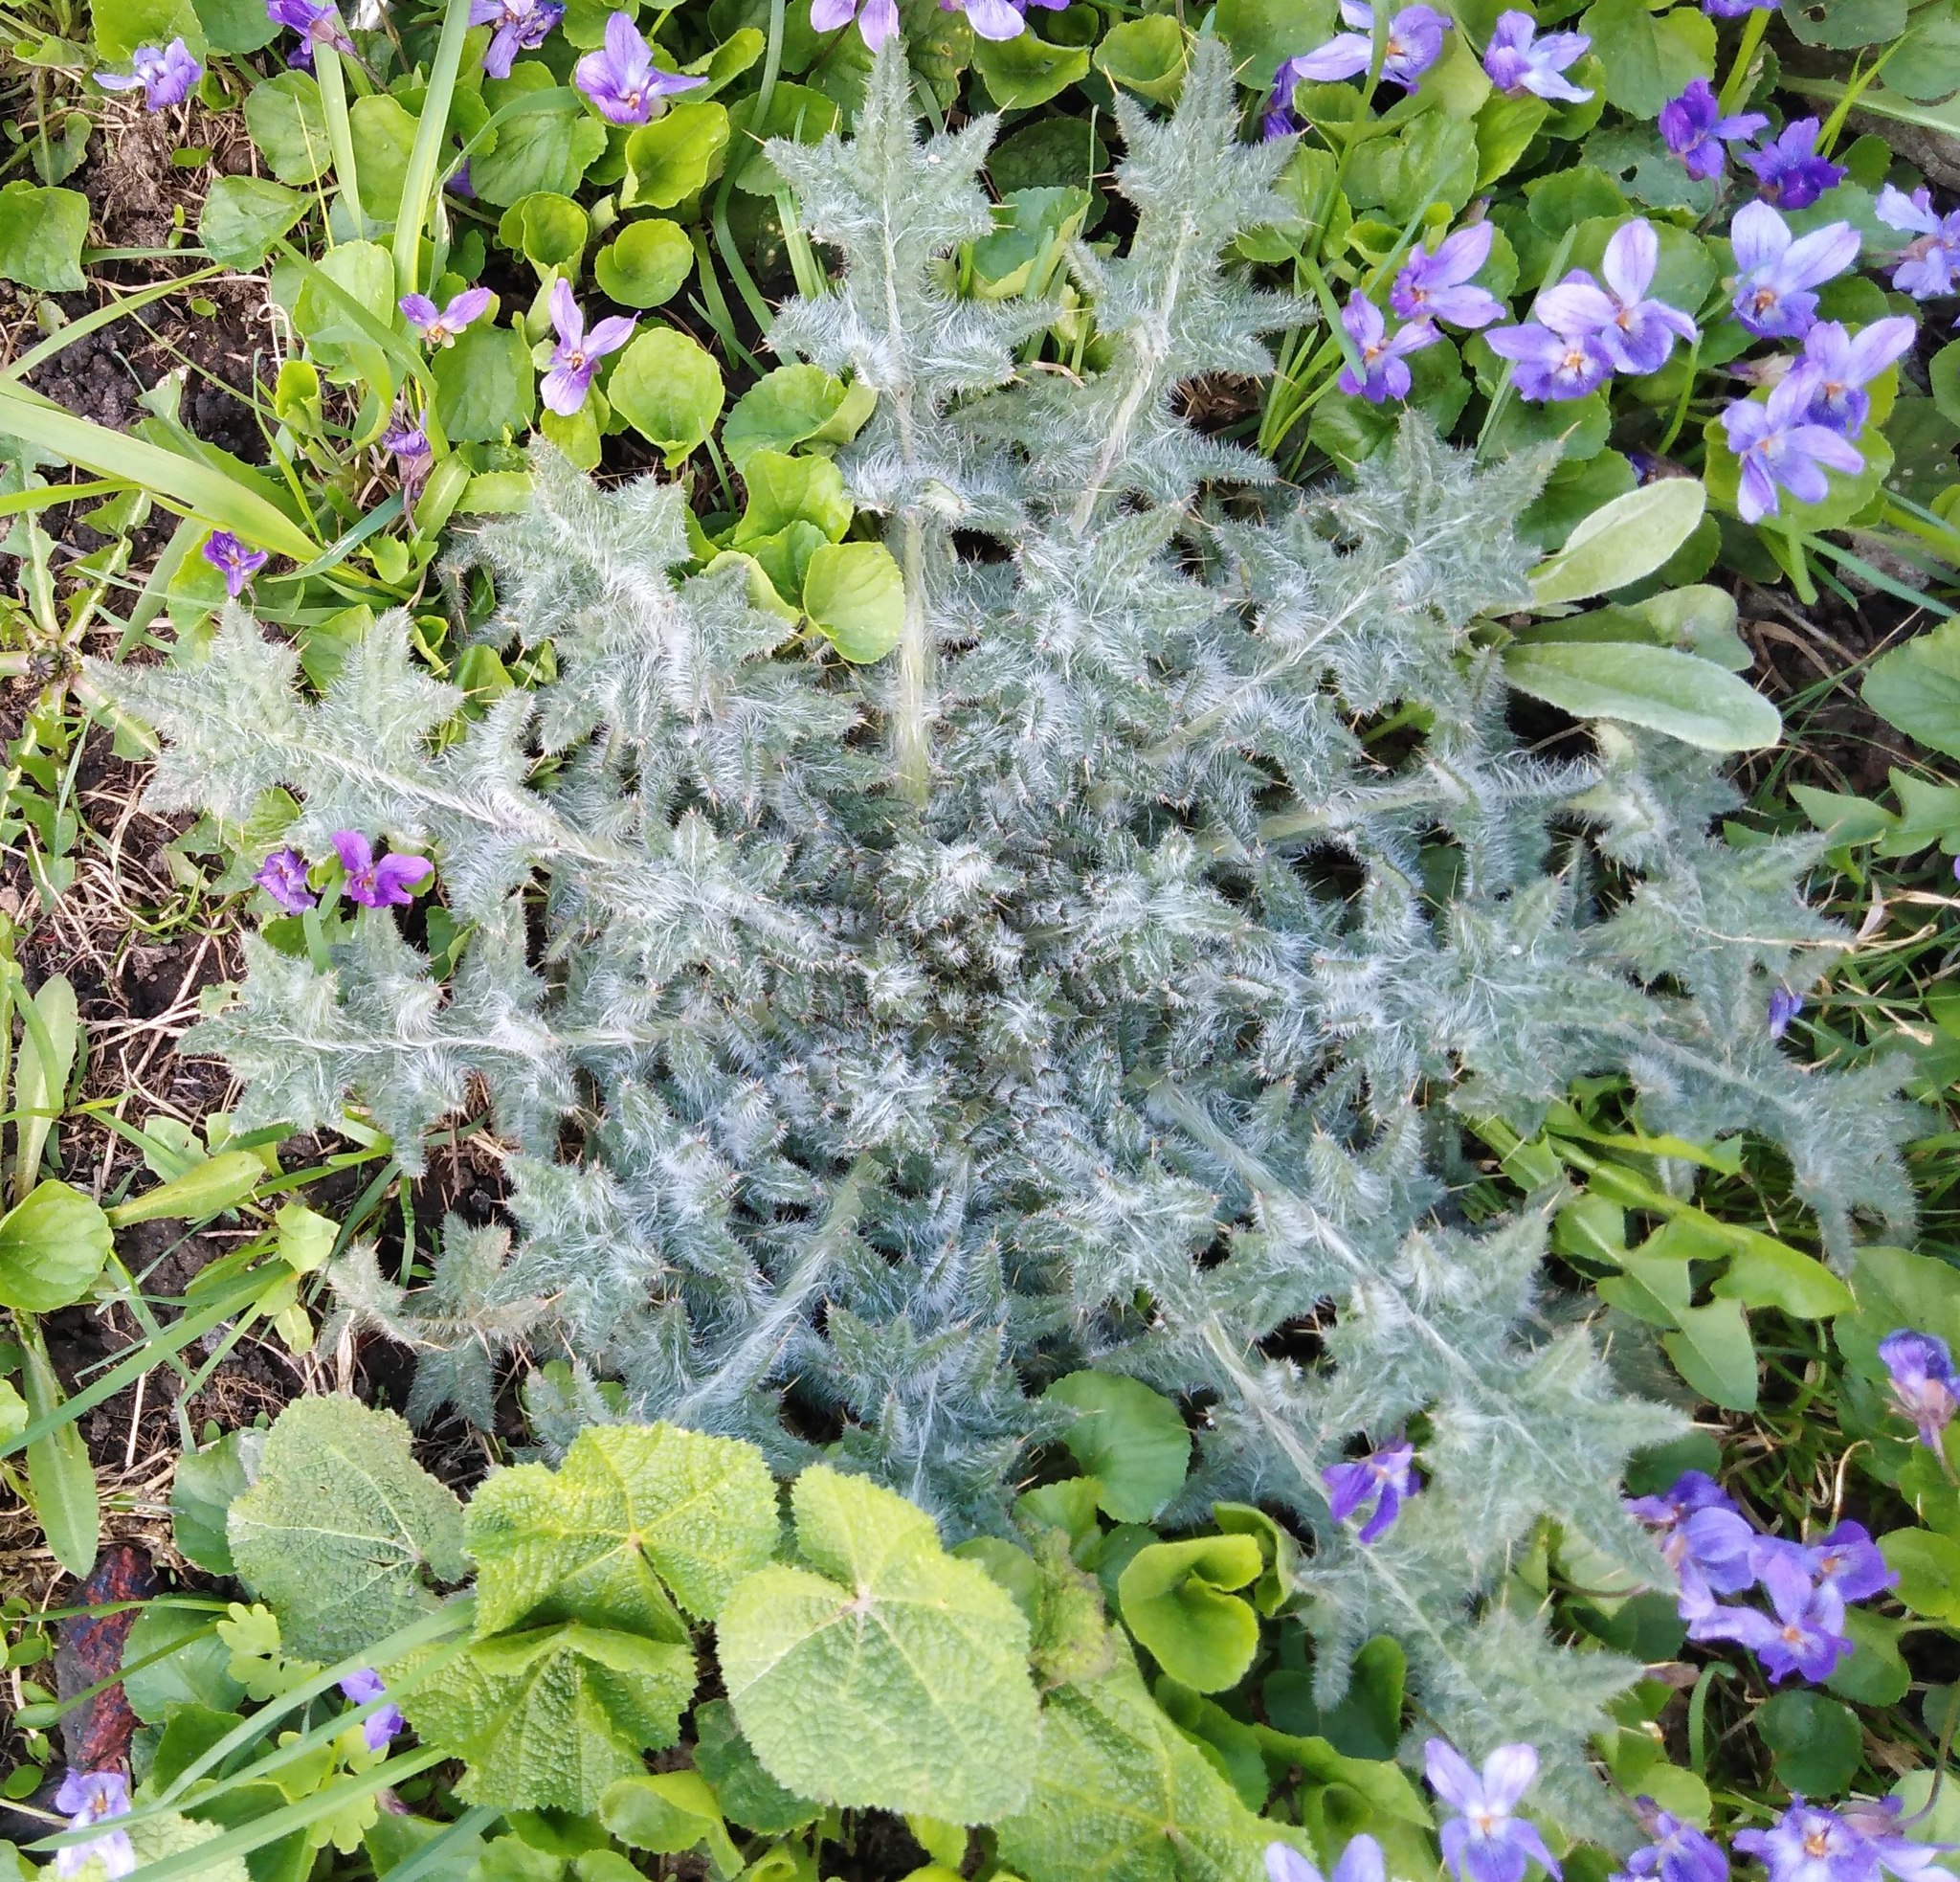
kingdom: Plantae
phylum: Tracheophyta
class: Magnoliopsida
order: Asterales
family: Asteraceae
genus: Cirsium
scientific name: Cirsium vulgare
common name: Bull thistle
